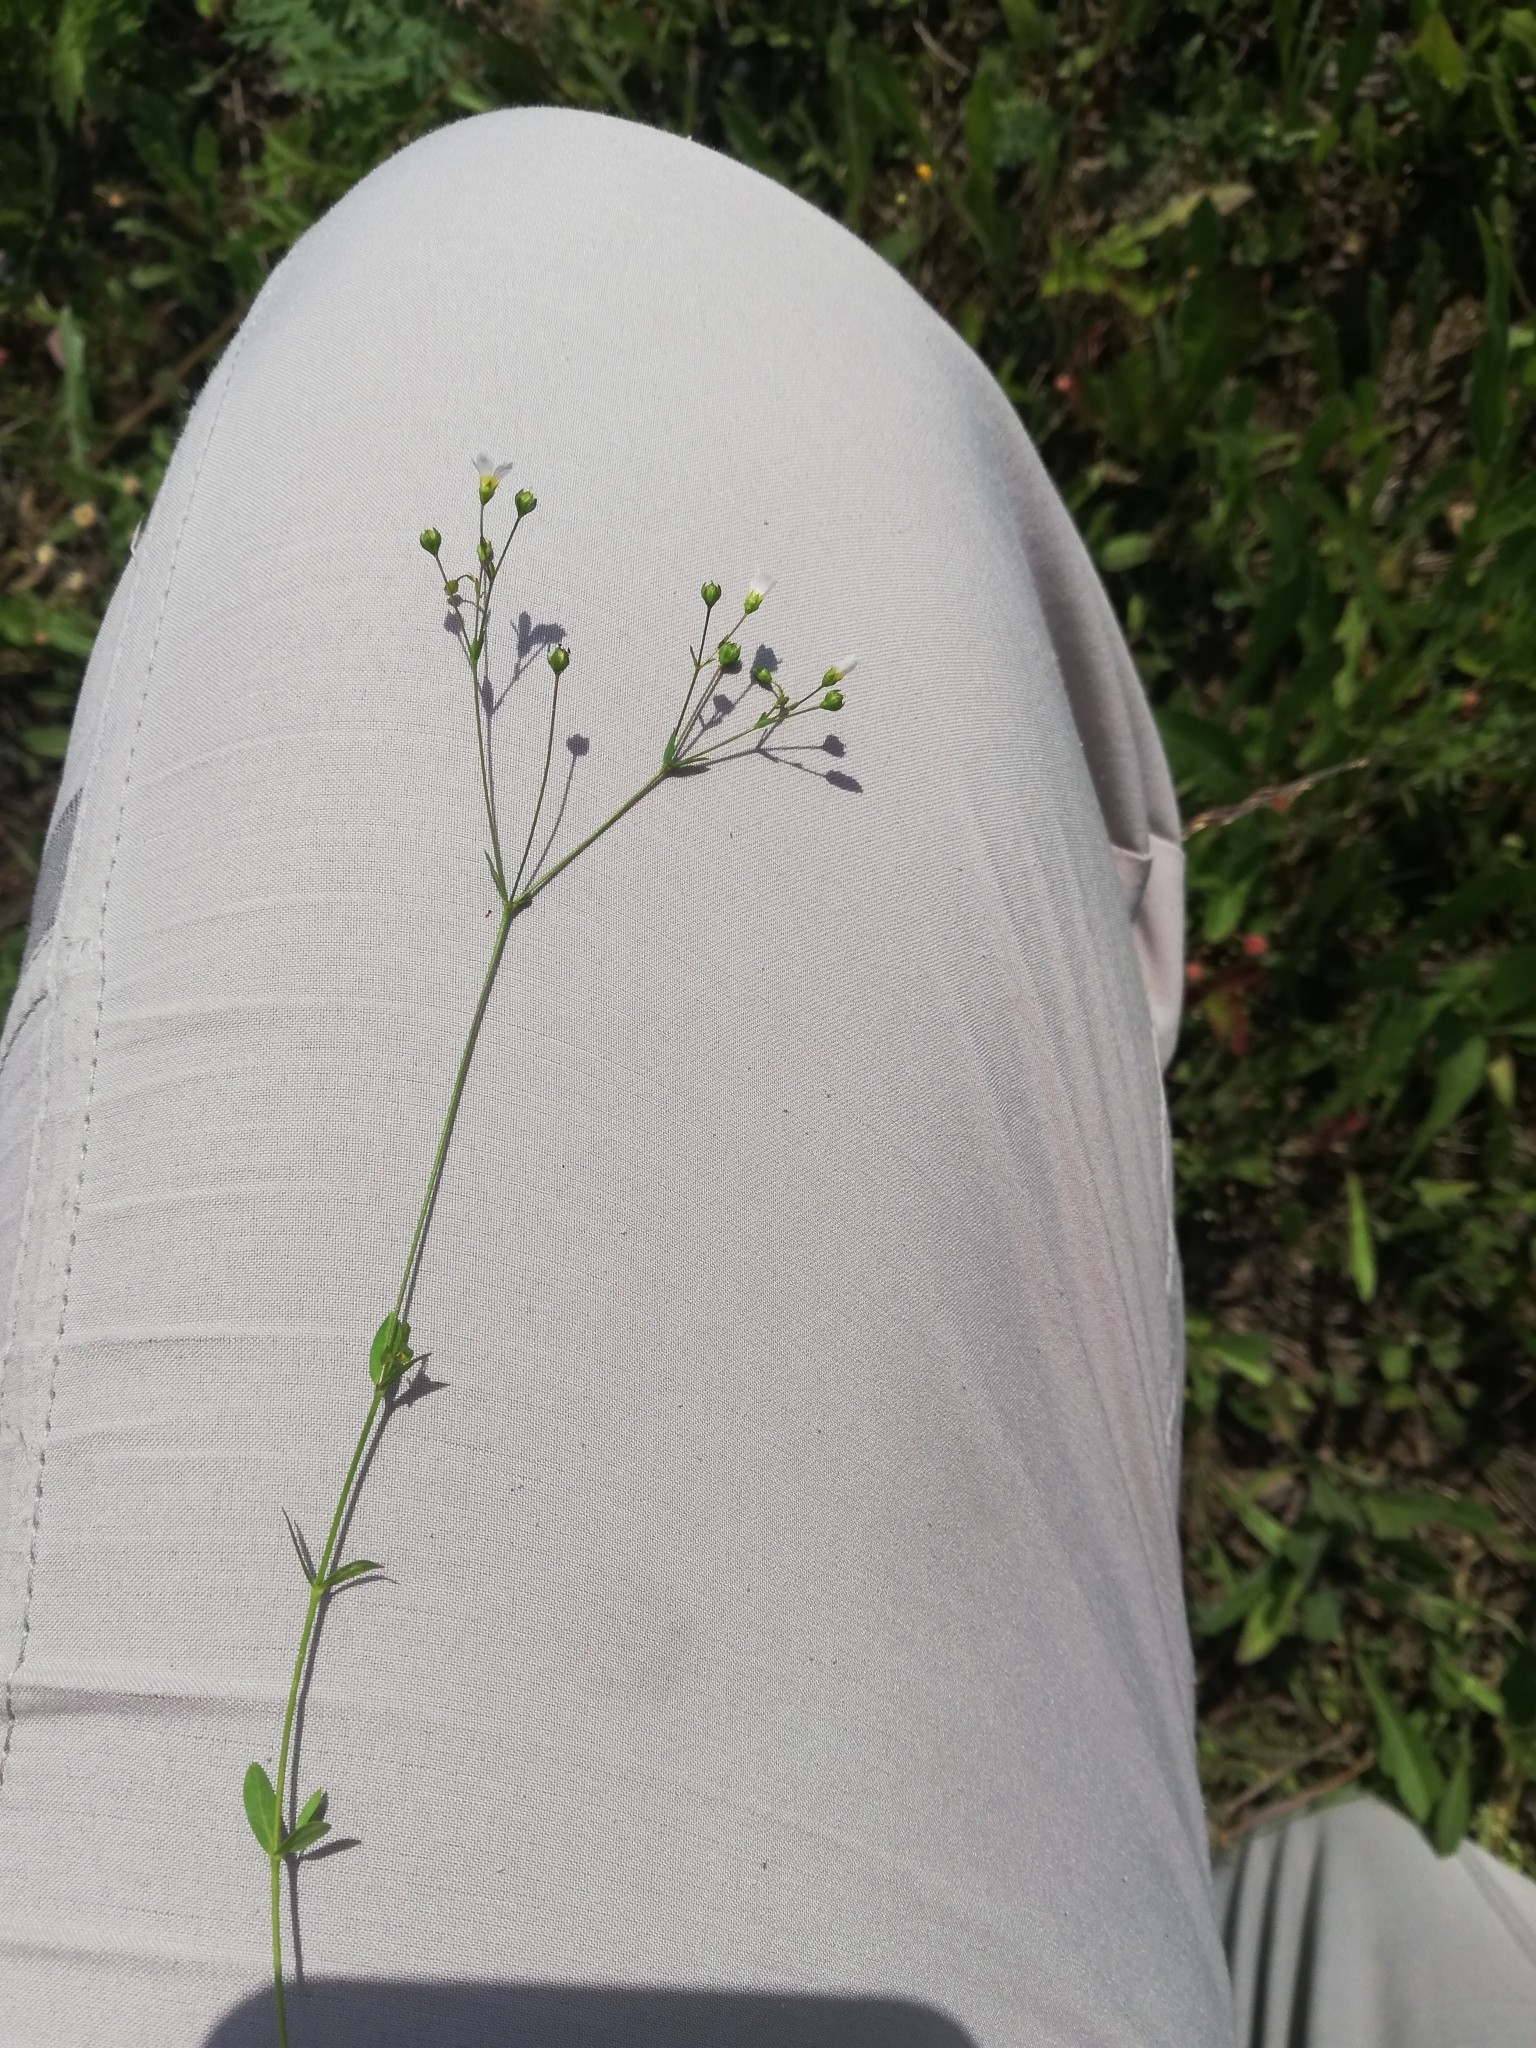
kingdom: Plantae
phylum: Tracheophyta
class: Magnoliopsida
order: Malpighiales
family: Linaceae
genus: Linum
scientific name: Linum catharticum
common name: Fairy flax
